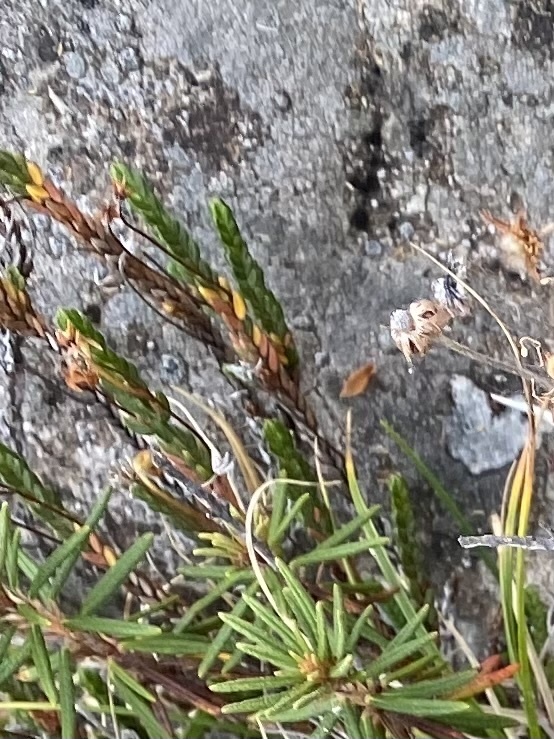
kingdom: Plantae
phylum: Tracheophyta
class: Magnoliopsida
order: Ericales
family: Ericaceae
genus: Cassiope
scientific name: Cassiope tetragona
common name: Arctic bell heather
